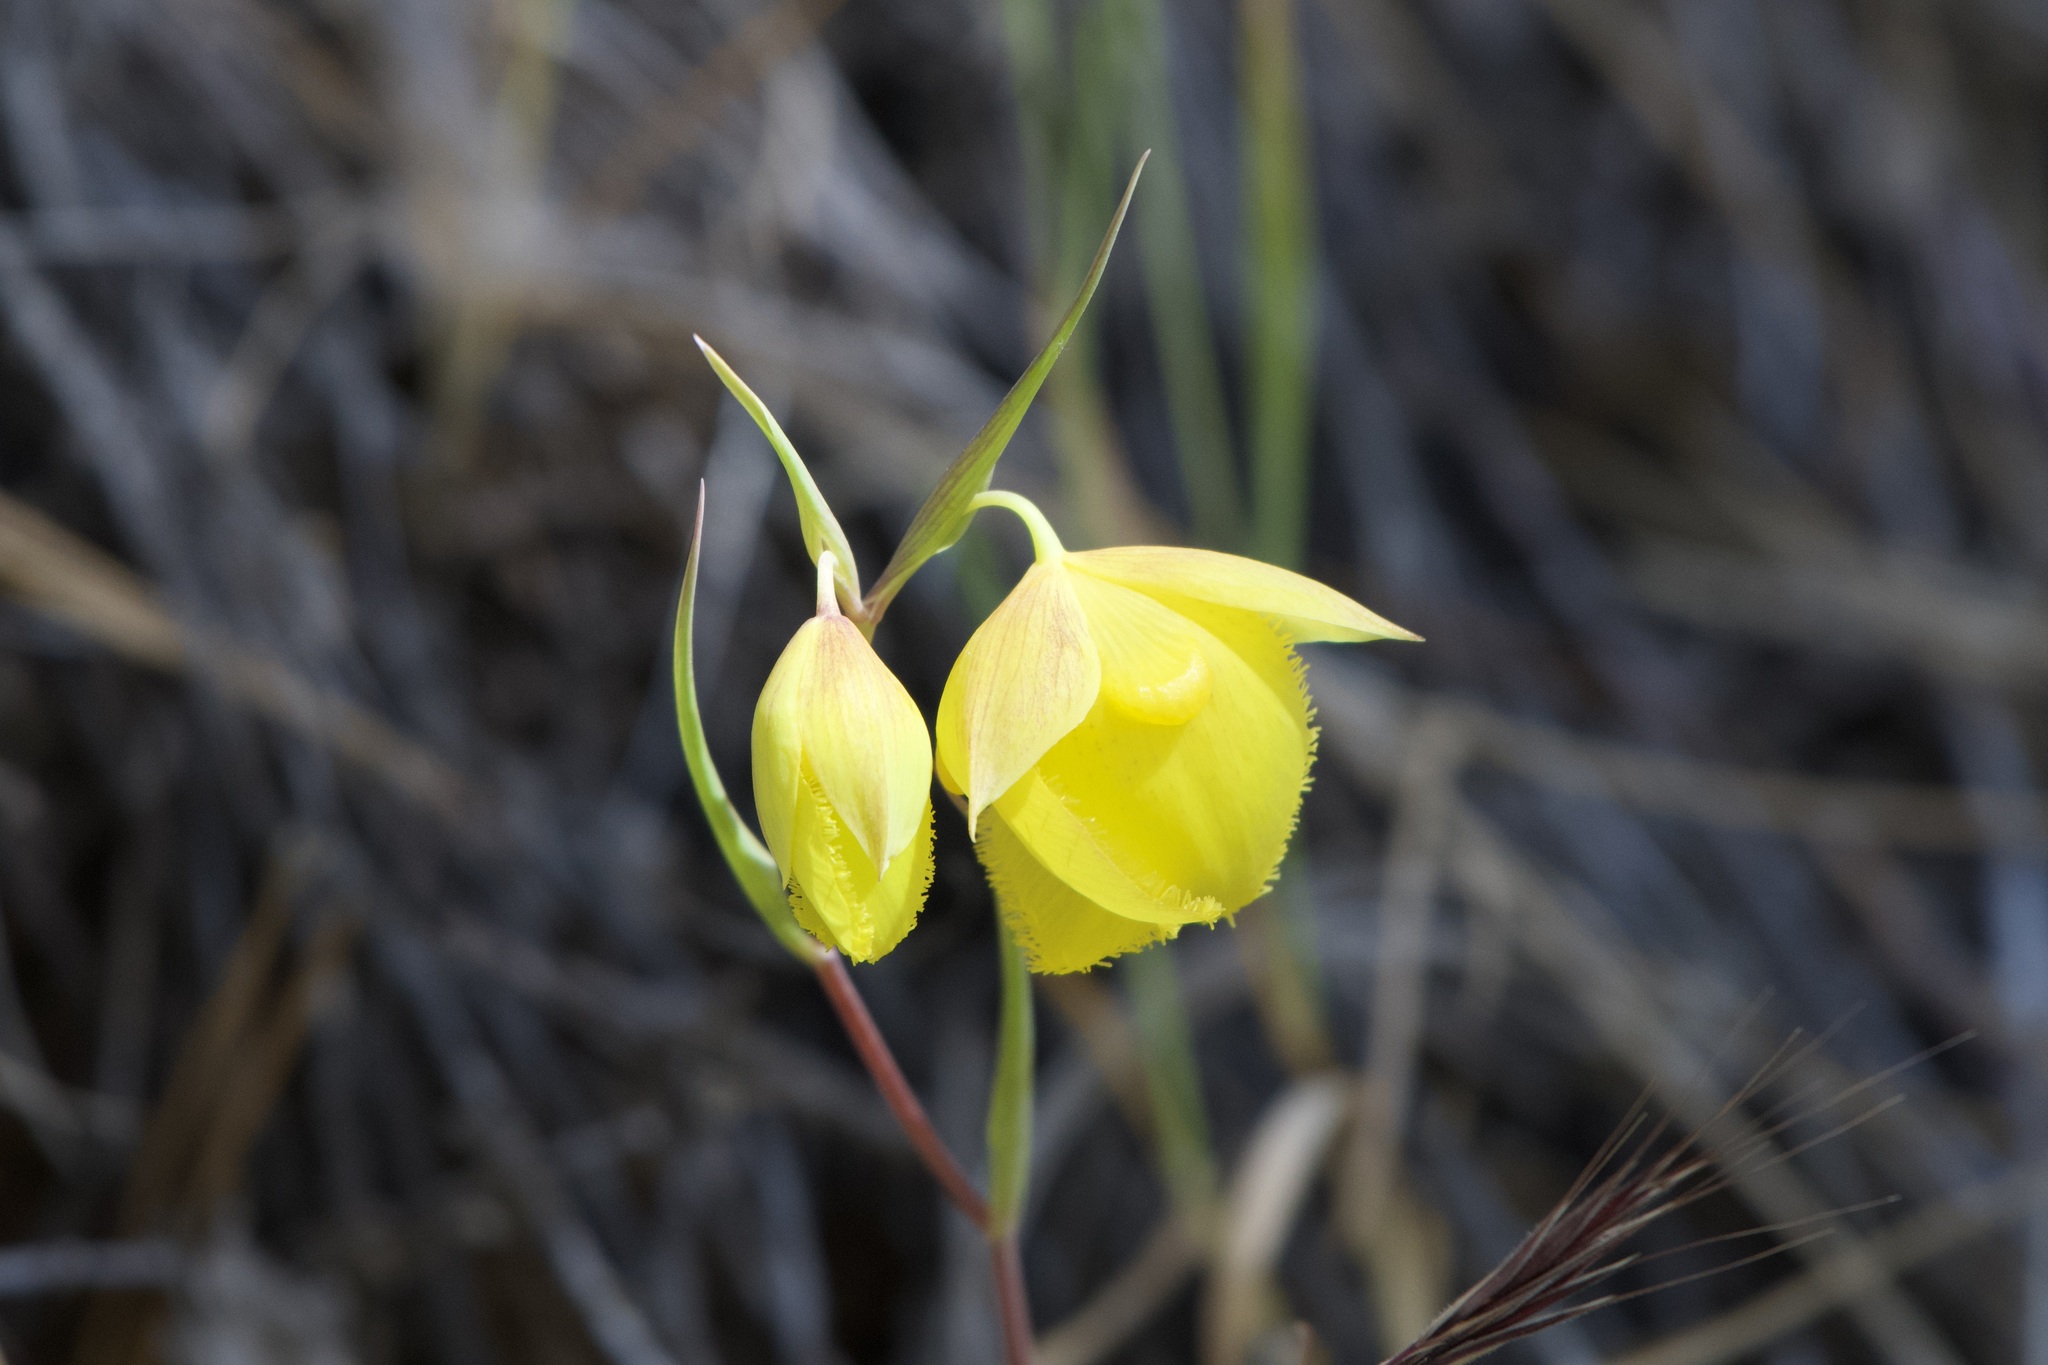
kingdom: Plantae
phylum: Tracheophyta
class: Liliopsida
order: Liliales
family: Liliaceae
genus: Calochortus
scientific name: Calochortus pulchellus
